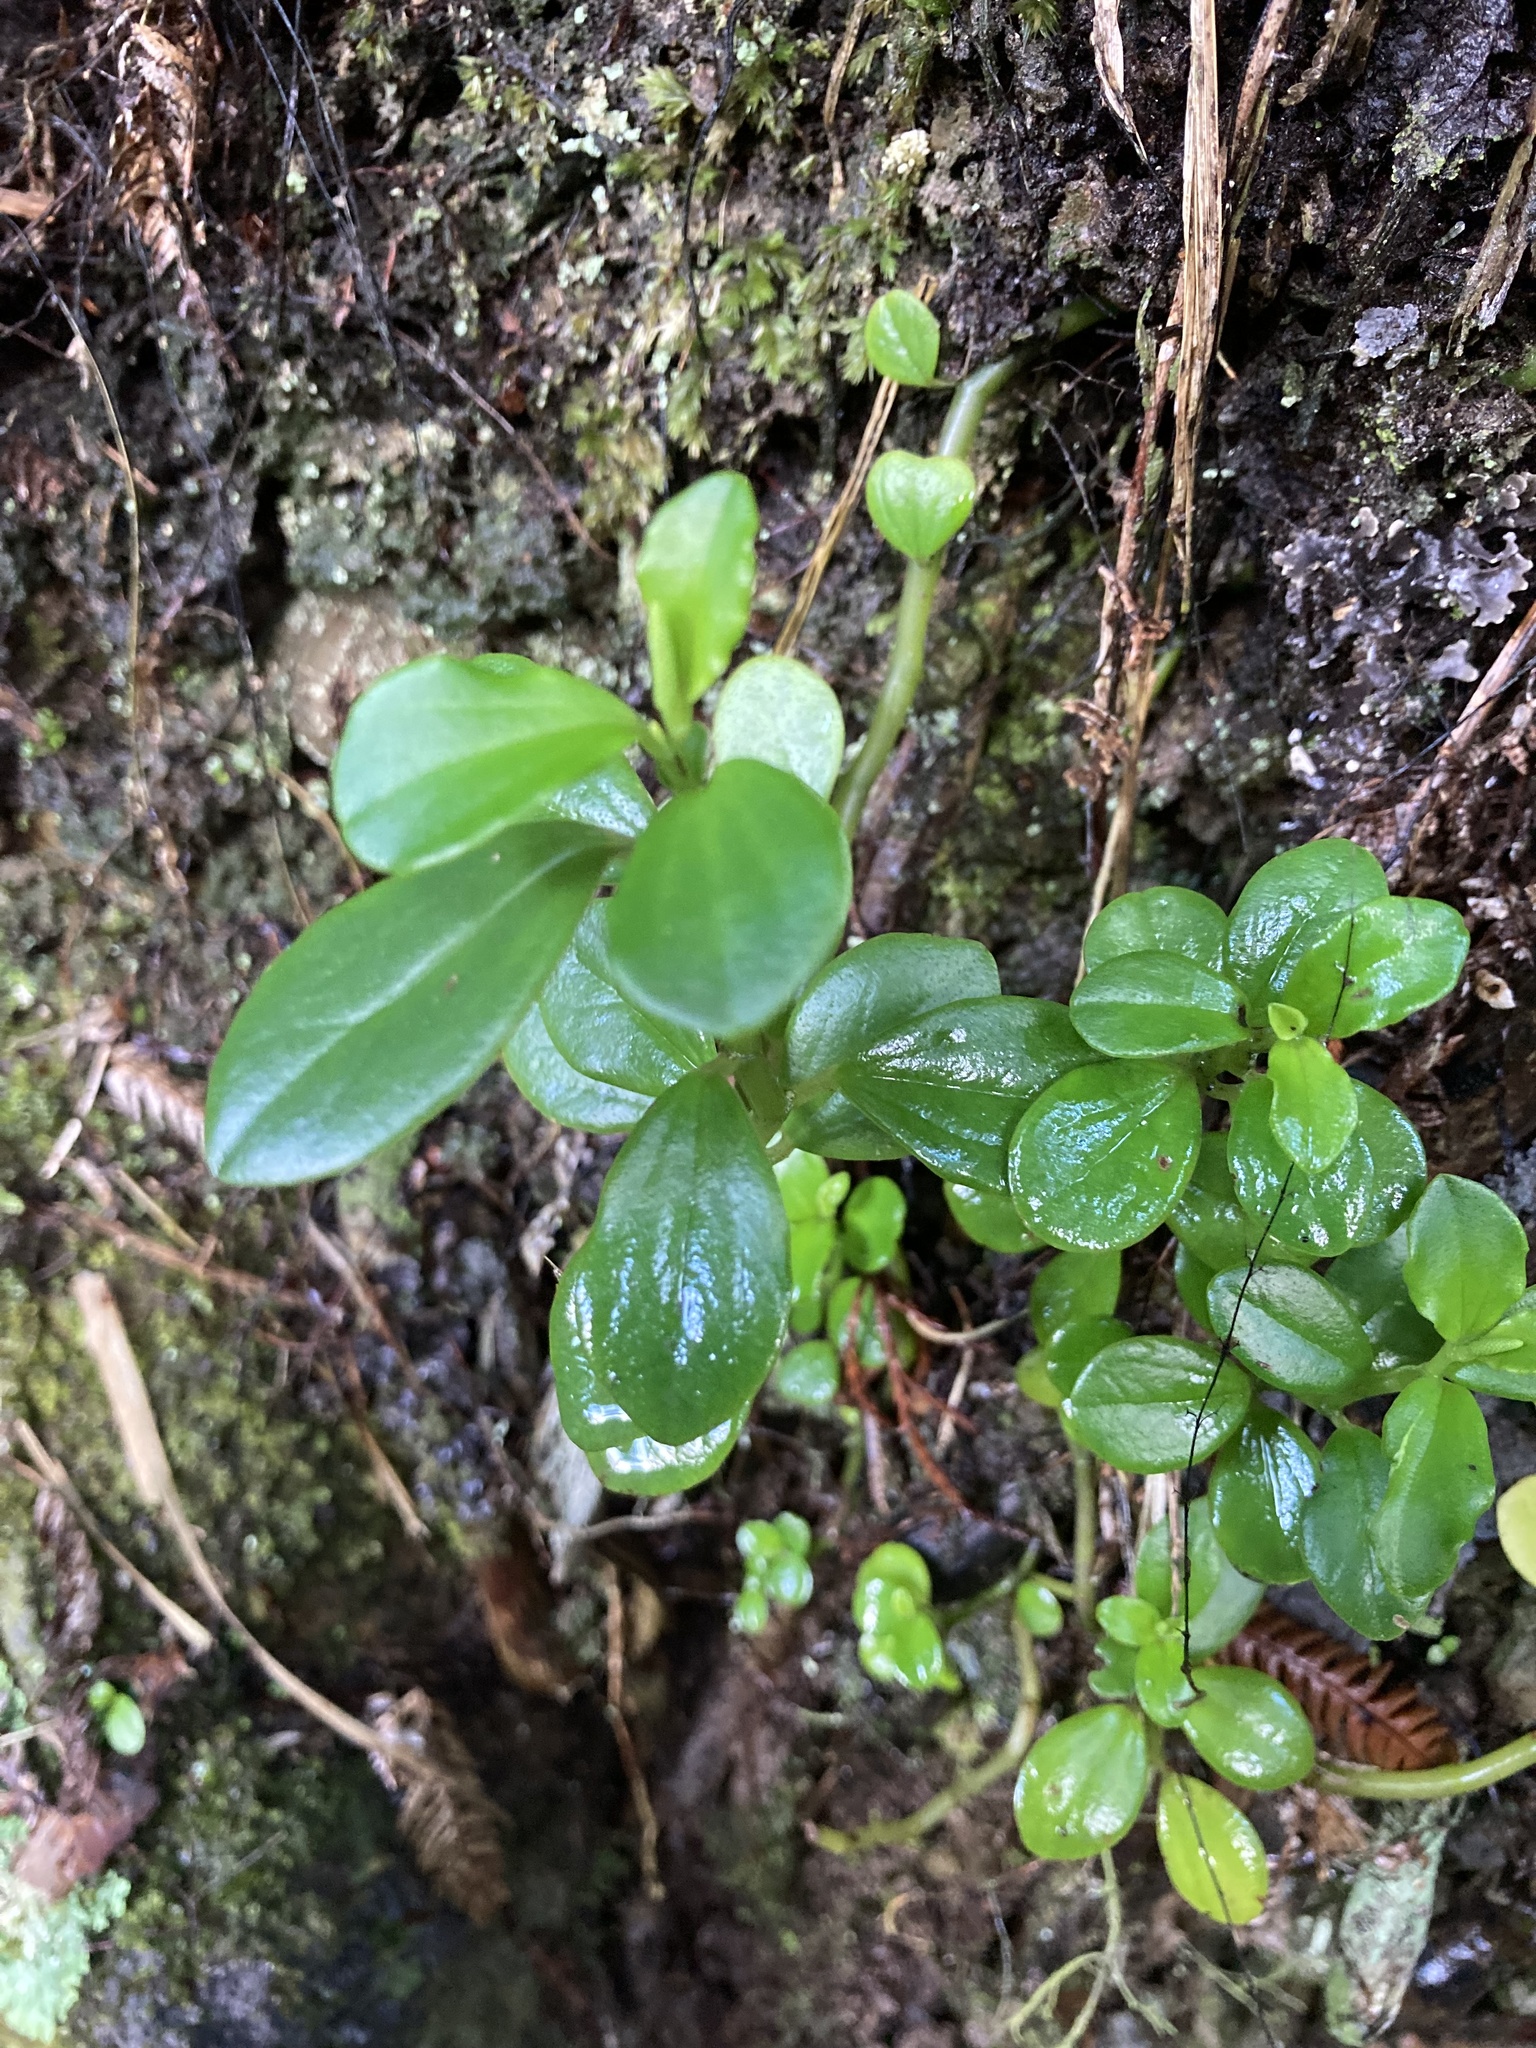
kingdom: Plantae
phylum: Tracheophyta
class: Magnoliopsida
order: Piperales
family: Piperaceae
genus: Peperomia
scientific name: Peperomia urvilleana
